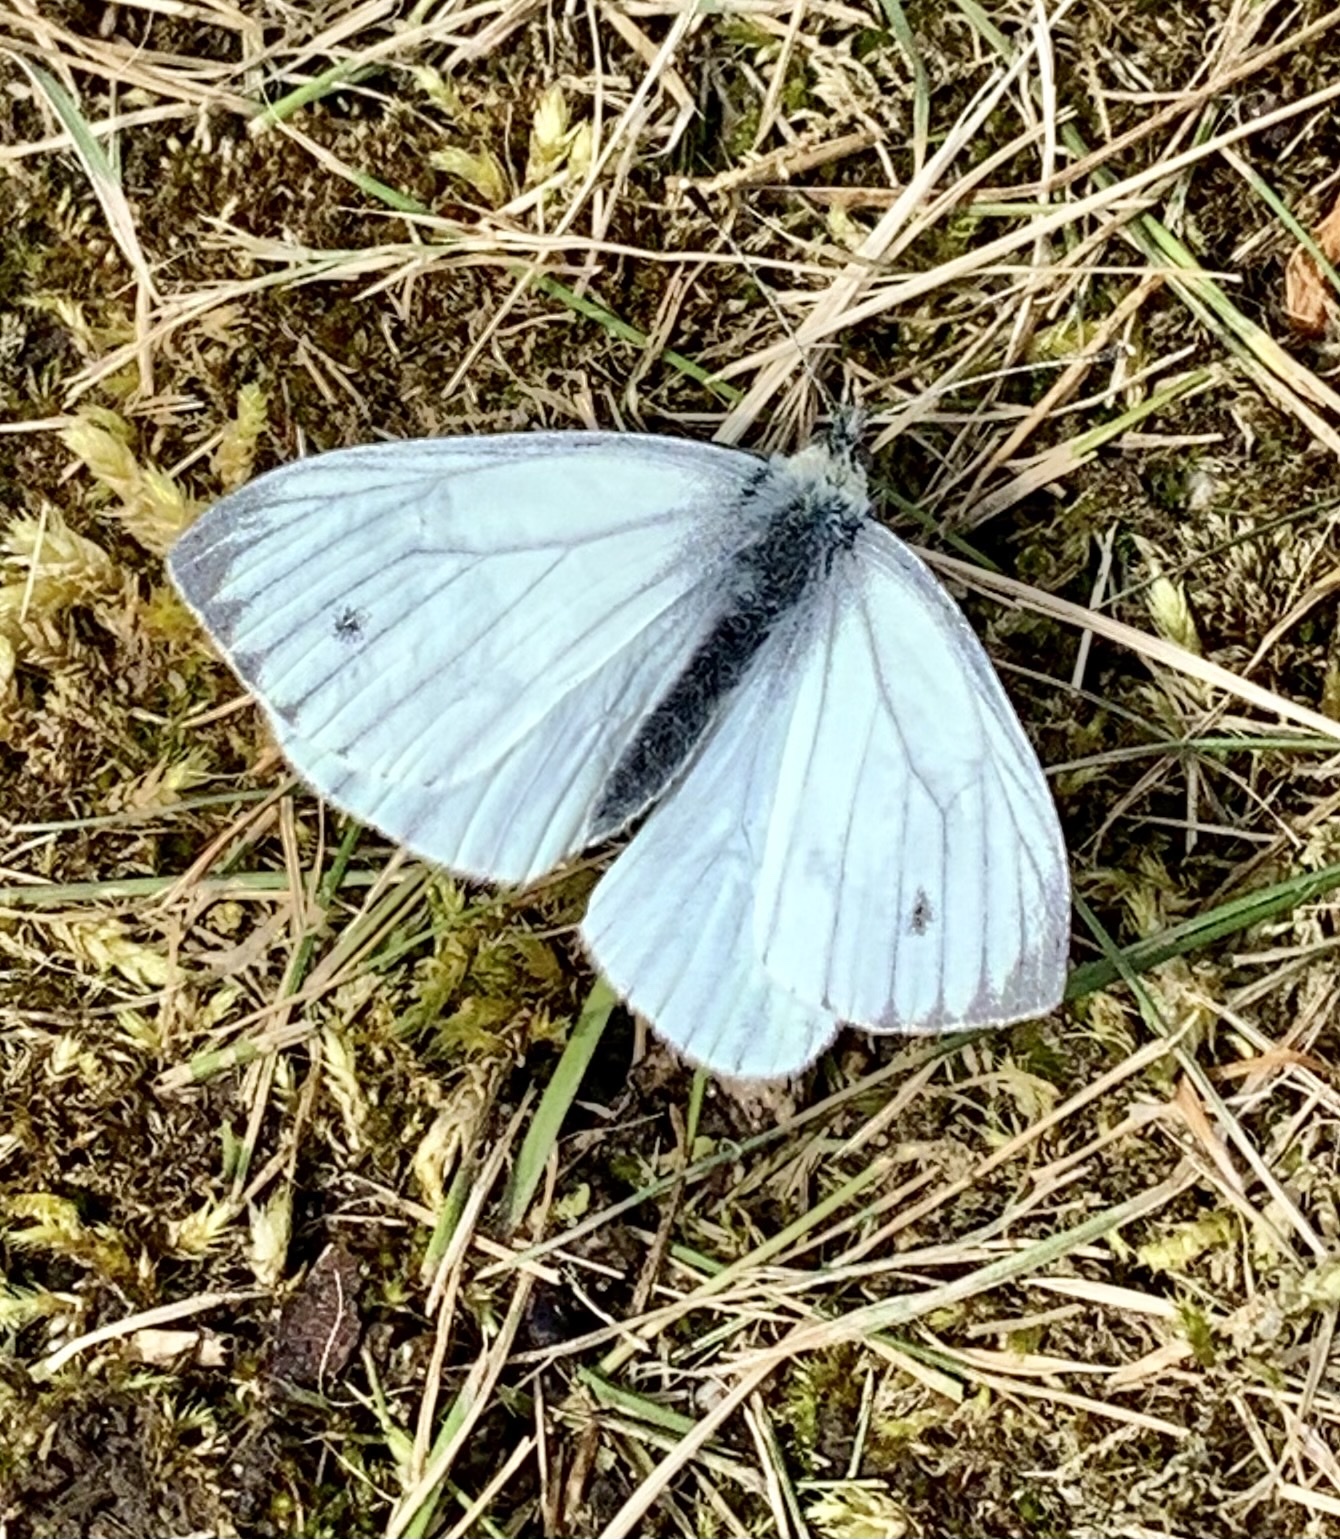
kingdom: Animalia
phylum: Arthropoda
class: Insecta
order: Lepidoptera
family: Pieridae
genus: Pieris
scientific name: Pieris napi
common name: Green-veined white
